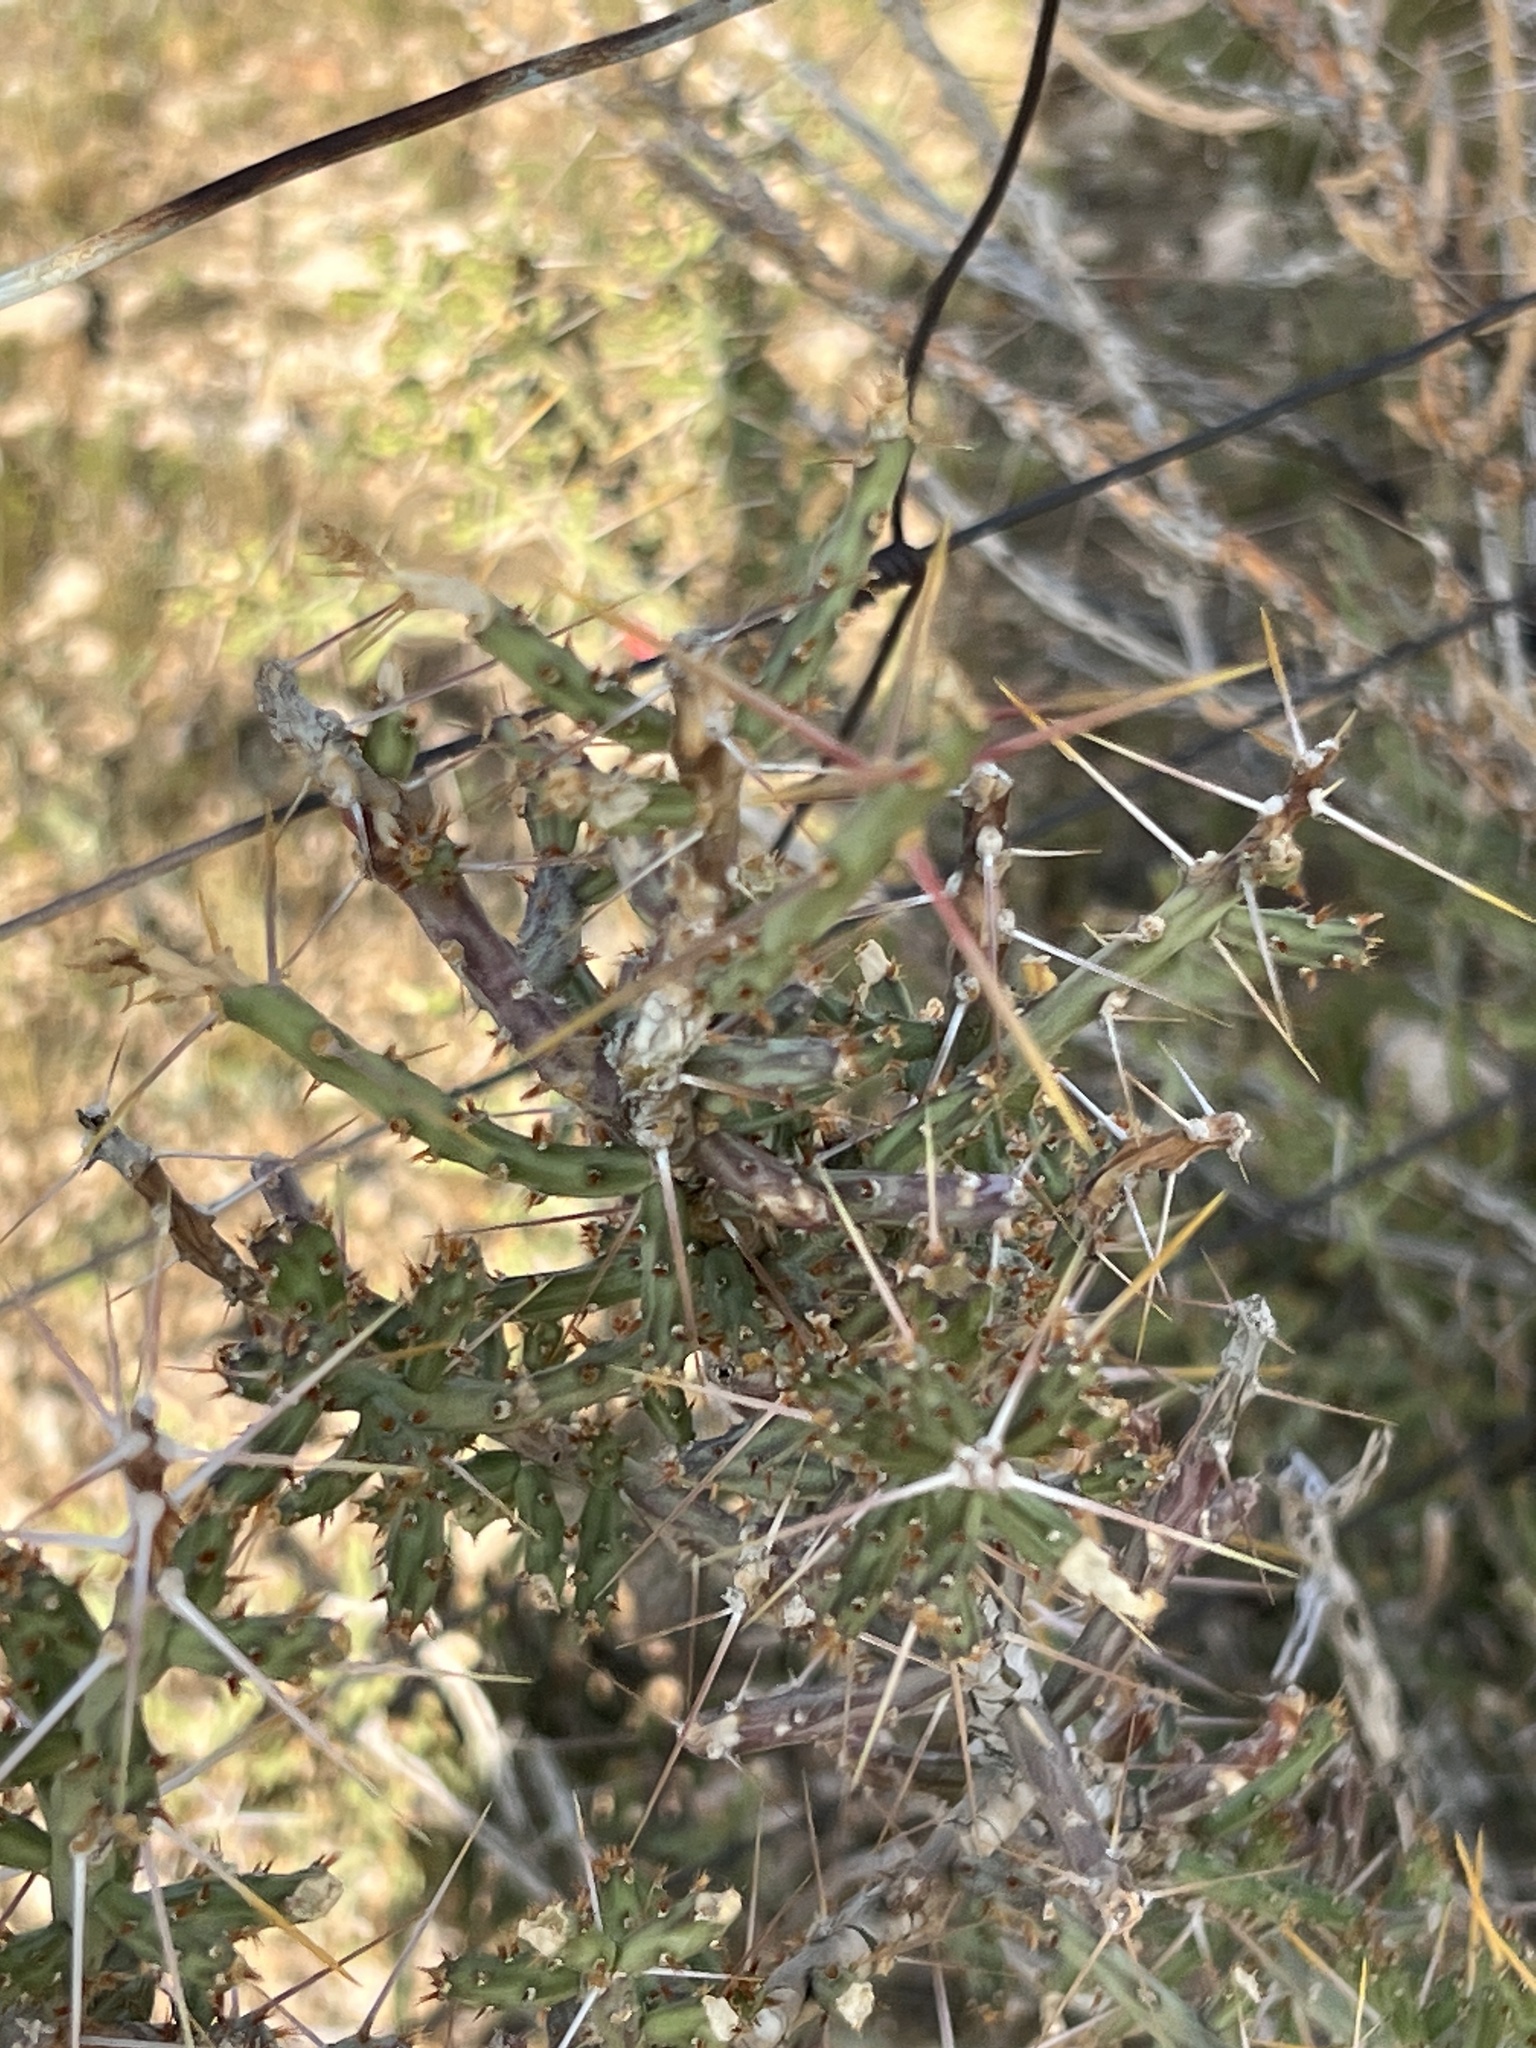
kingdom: Plantae
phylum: Tracheophyta
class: Magnoliopsida
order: Caryophyllales
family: Cactaceae
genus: Cylindropuntia
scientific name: Cylindropuntia leptocaulis
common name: Christmas cactus
